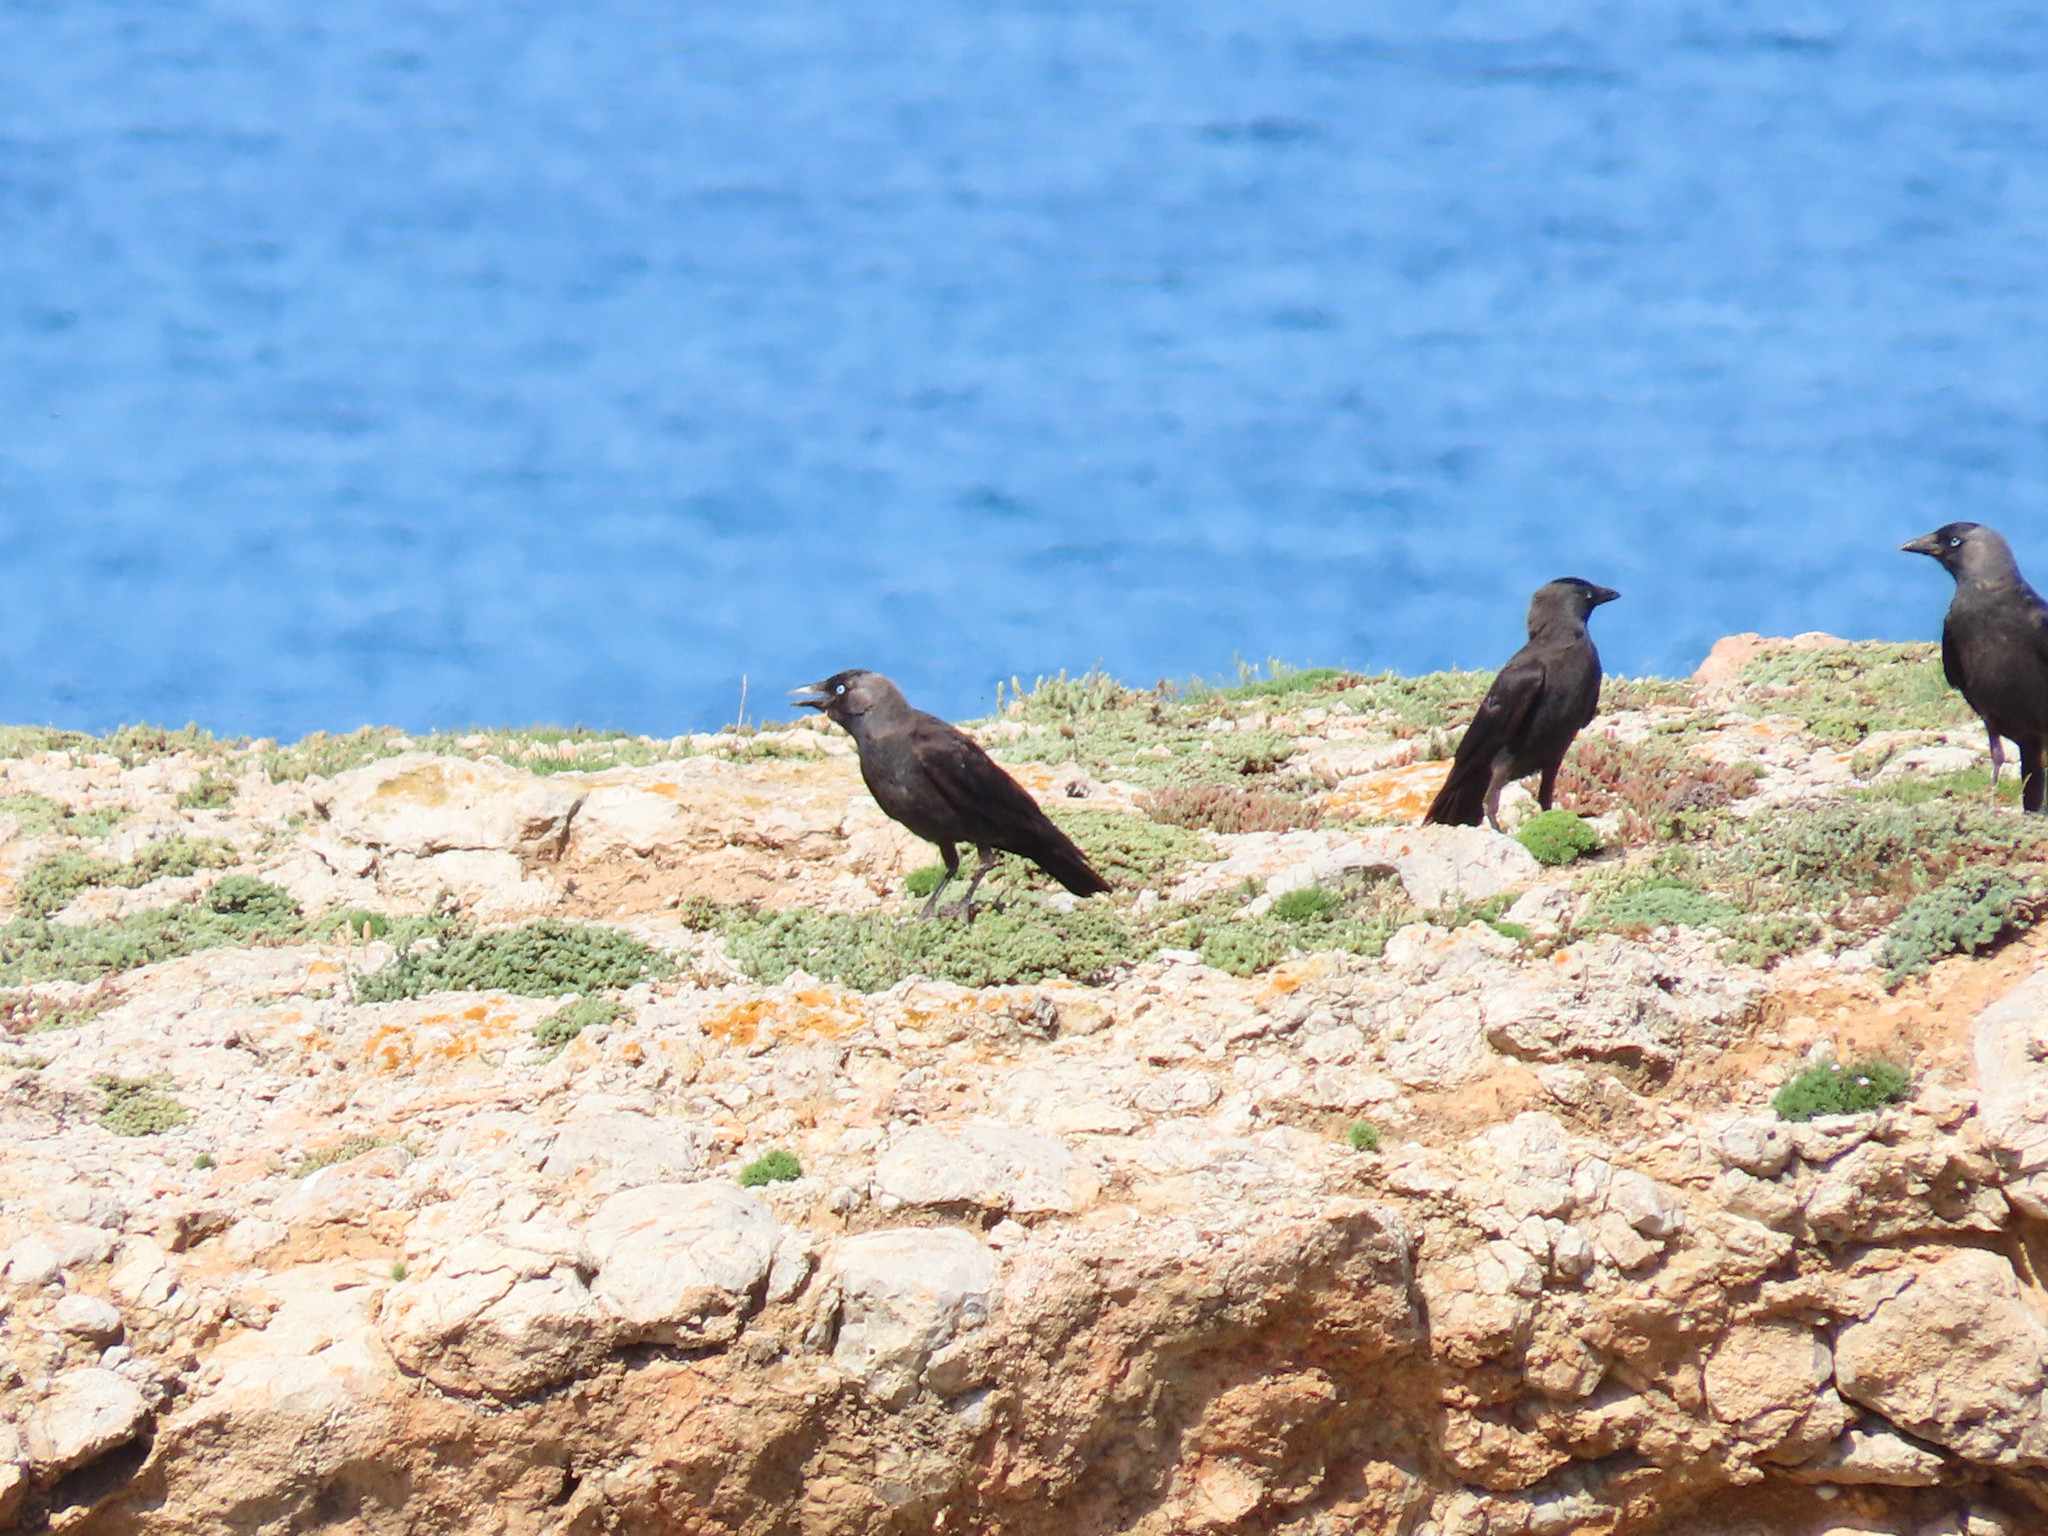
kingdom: Animalia
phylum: Chordata
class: Aves
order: Passeriformes
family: Corvidae
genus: Coloeus
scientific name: Coloeus monedula
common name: Western jackdaw
